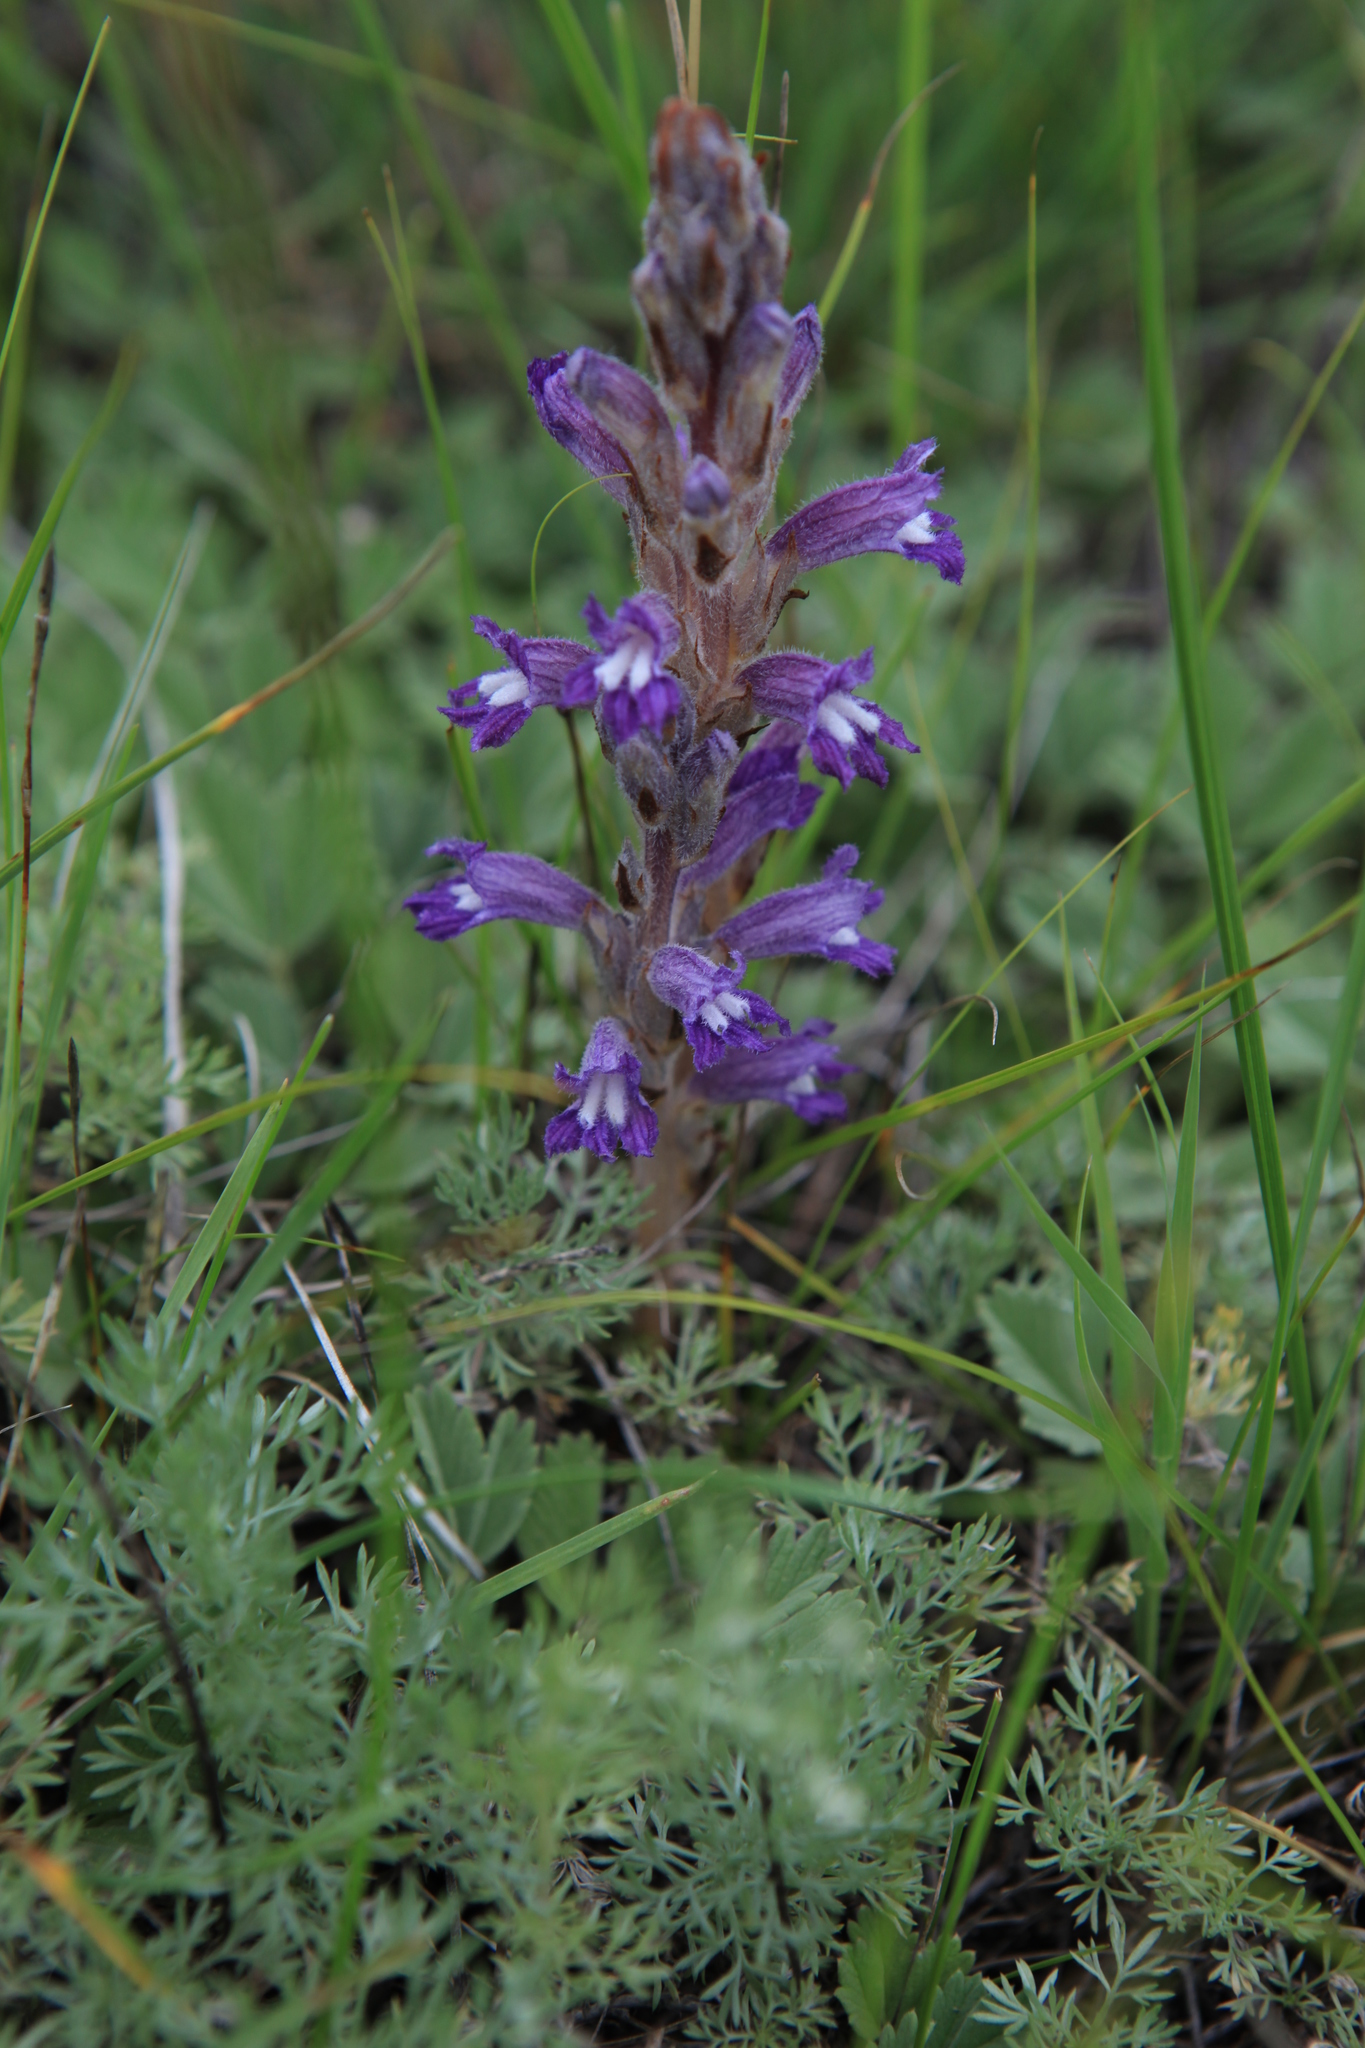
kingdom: Plantae
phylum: Tracheophyta
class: Magnoliopsida
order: Lamiales
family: Orobanchaceae
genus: Phelipanche
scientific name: Phelipanche caesia
